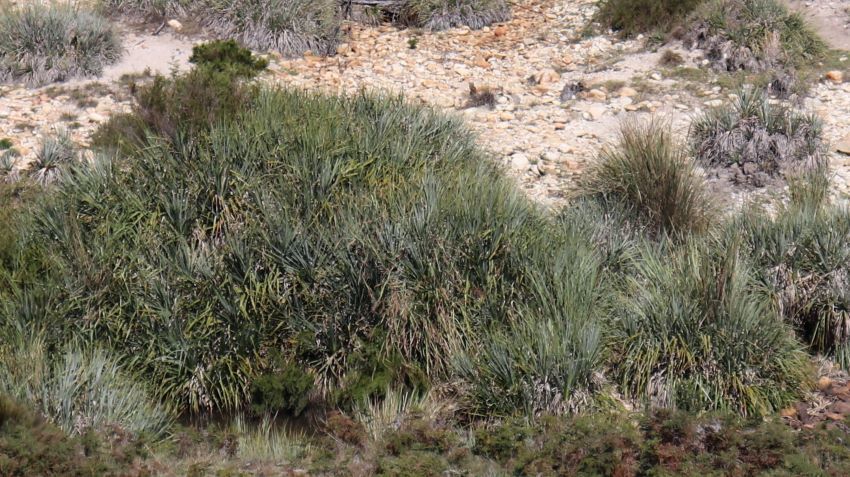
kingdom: Plantae
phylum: Tracheophyta
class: Liliopsida
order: Poales
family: Thurniaceae
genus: Prionium
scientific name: Prionium serratum
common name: Palmiet
